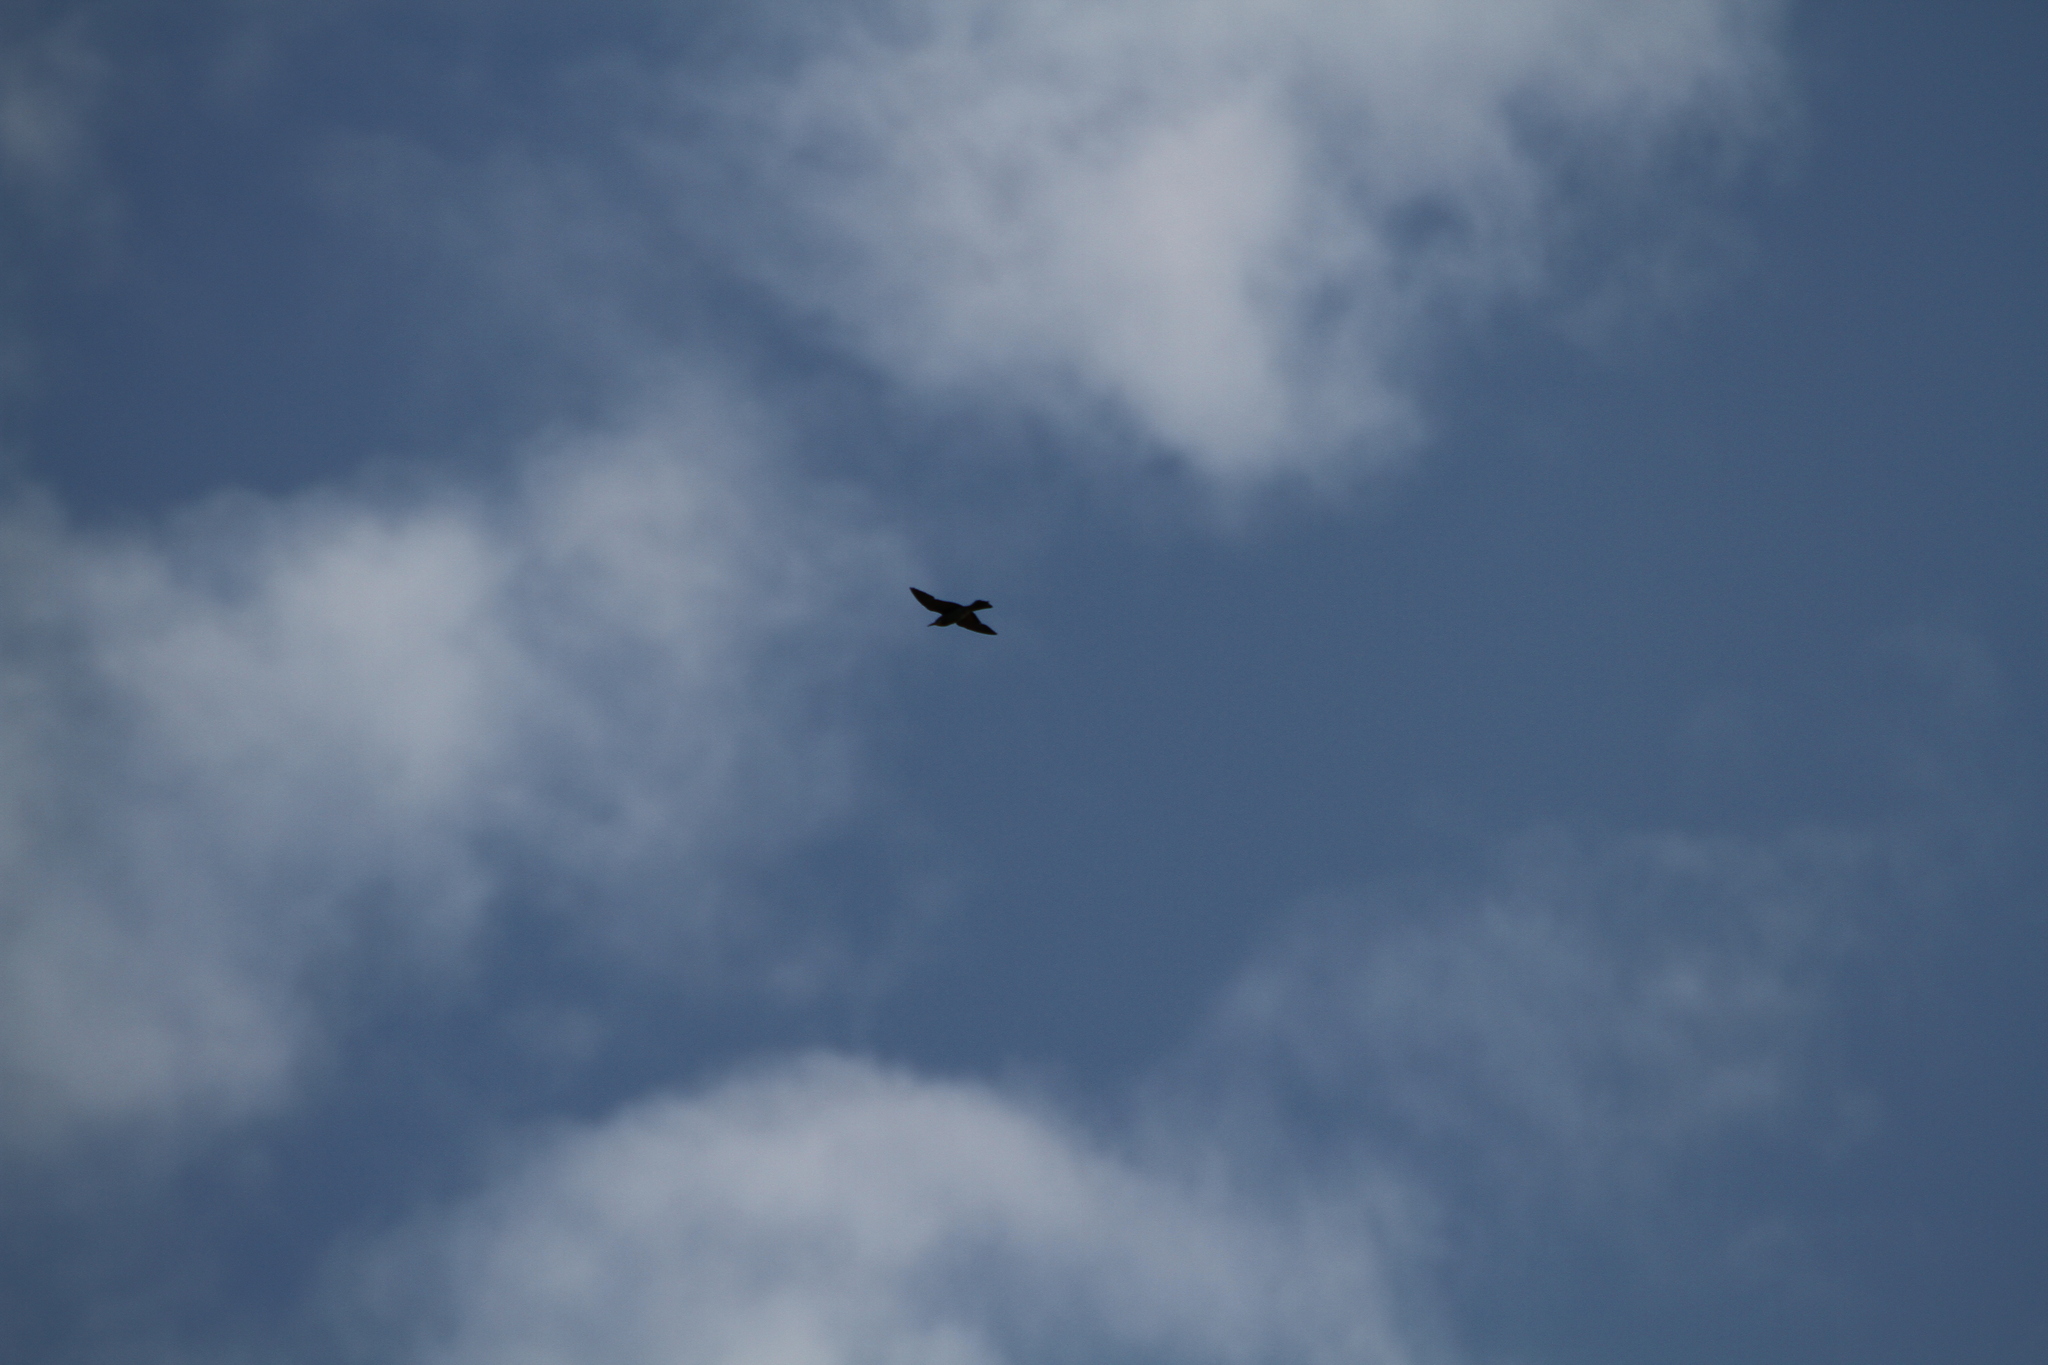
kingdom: Animalia
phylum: Chordata
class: Aves
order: Coraciiformes
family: Meropidae
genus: Merops
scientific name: Merops apiaster
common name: European bee-eater
